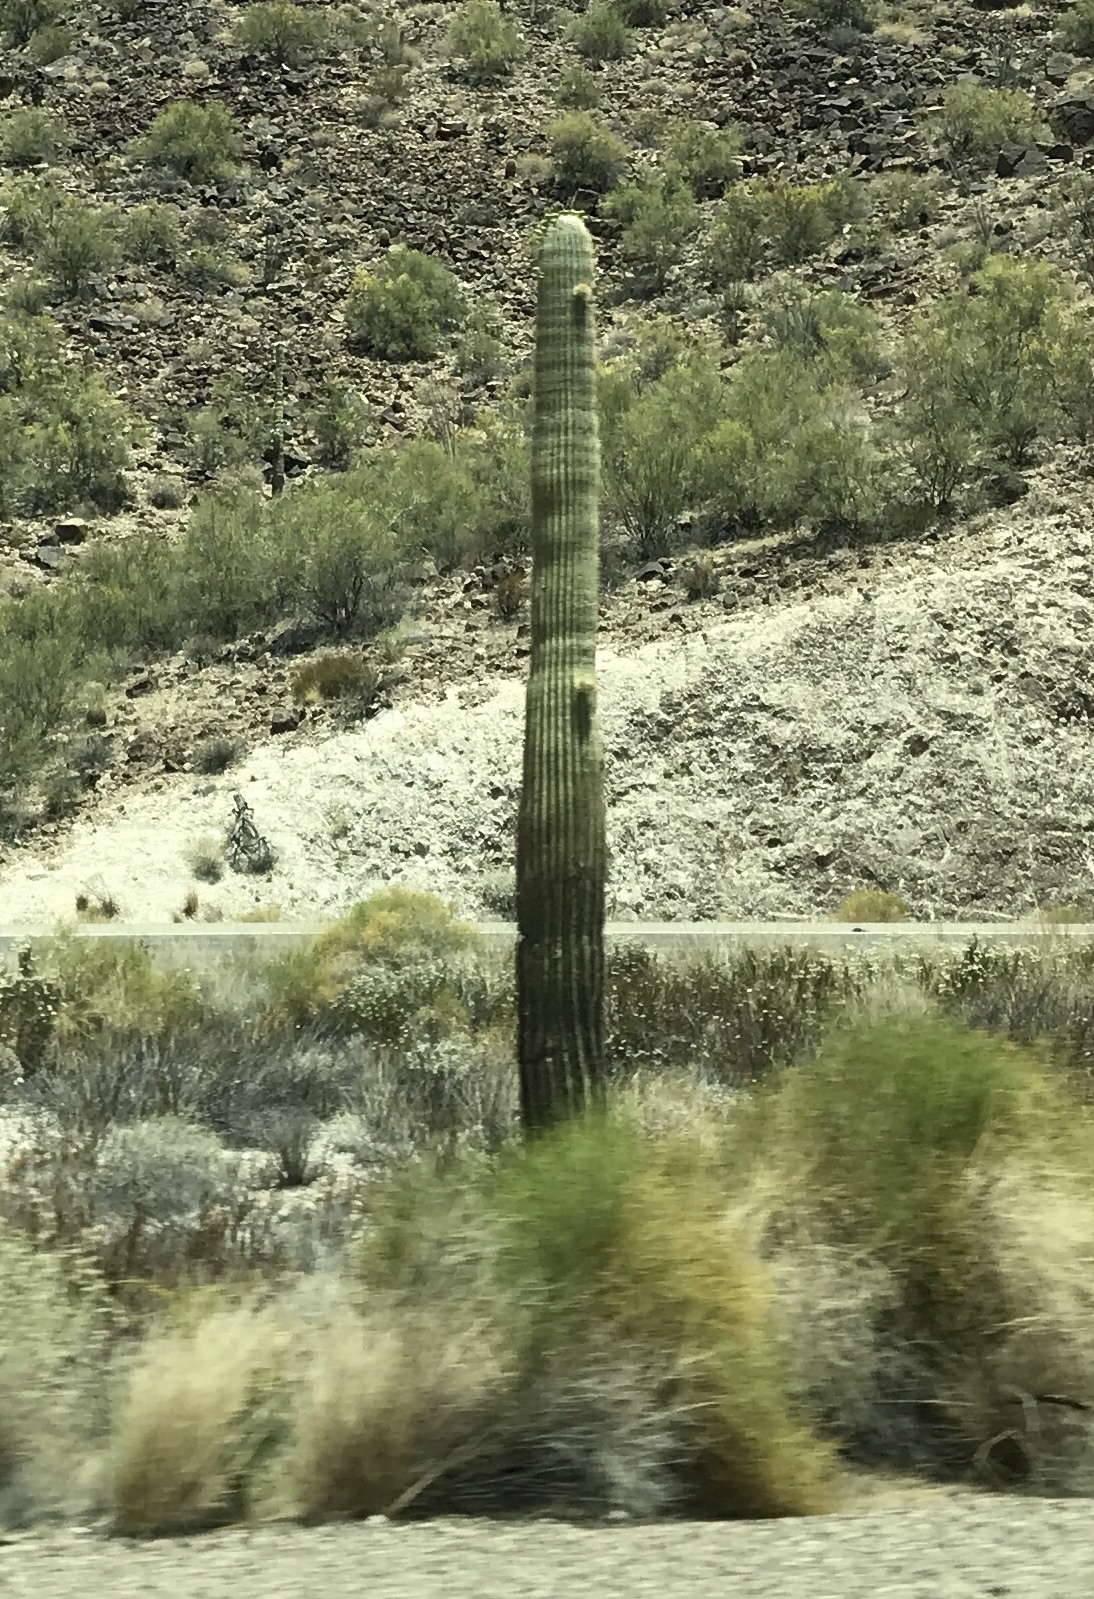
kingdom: Plantae
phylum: Tracheophyta
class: Magnoliopsida
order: Caryophyllales
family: Cactaceae
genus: Carnegiea
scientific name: Carnegiea gigantea
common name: Saguaro
